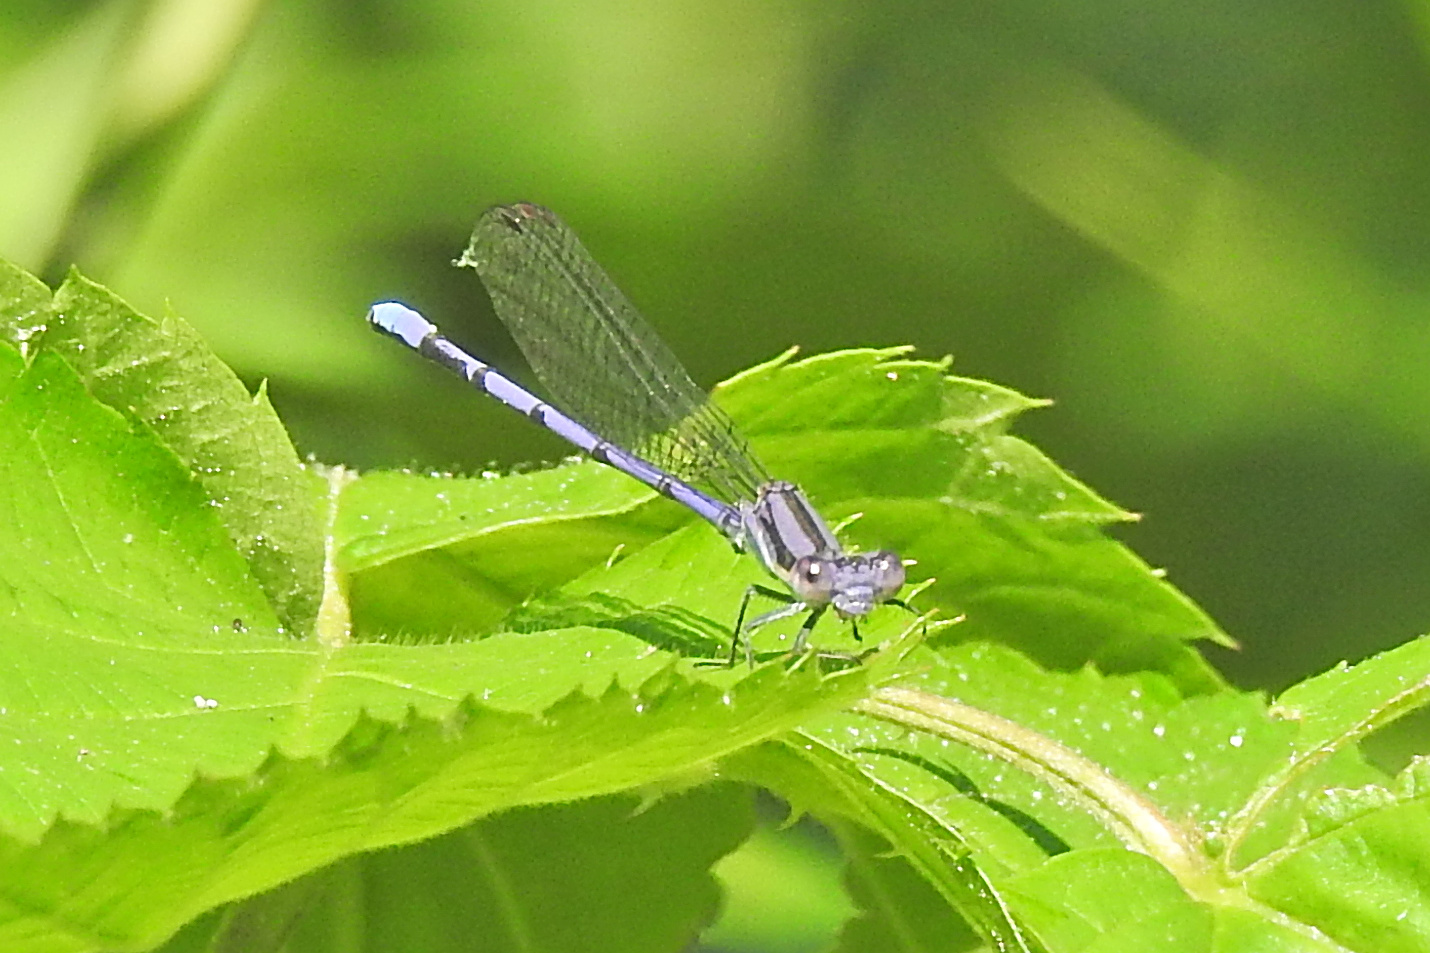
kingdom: Animalia
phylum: Arthropoda
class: Insecta
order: Odonata
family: Coenagrionidae
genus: Argia
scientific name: Argia fumipennis
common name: Variable dancer
